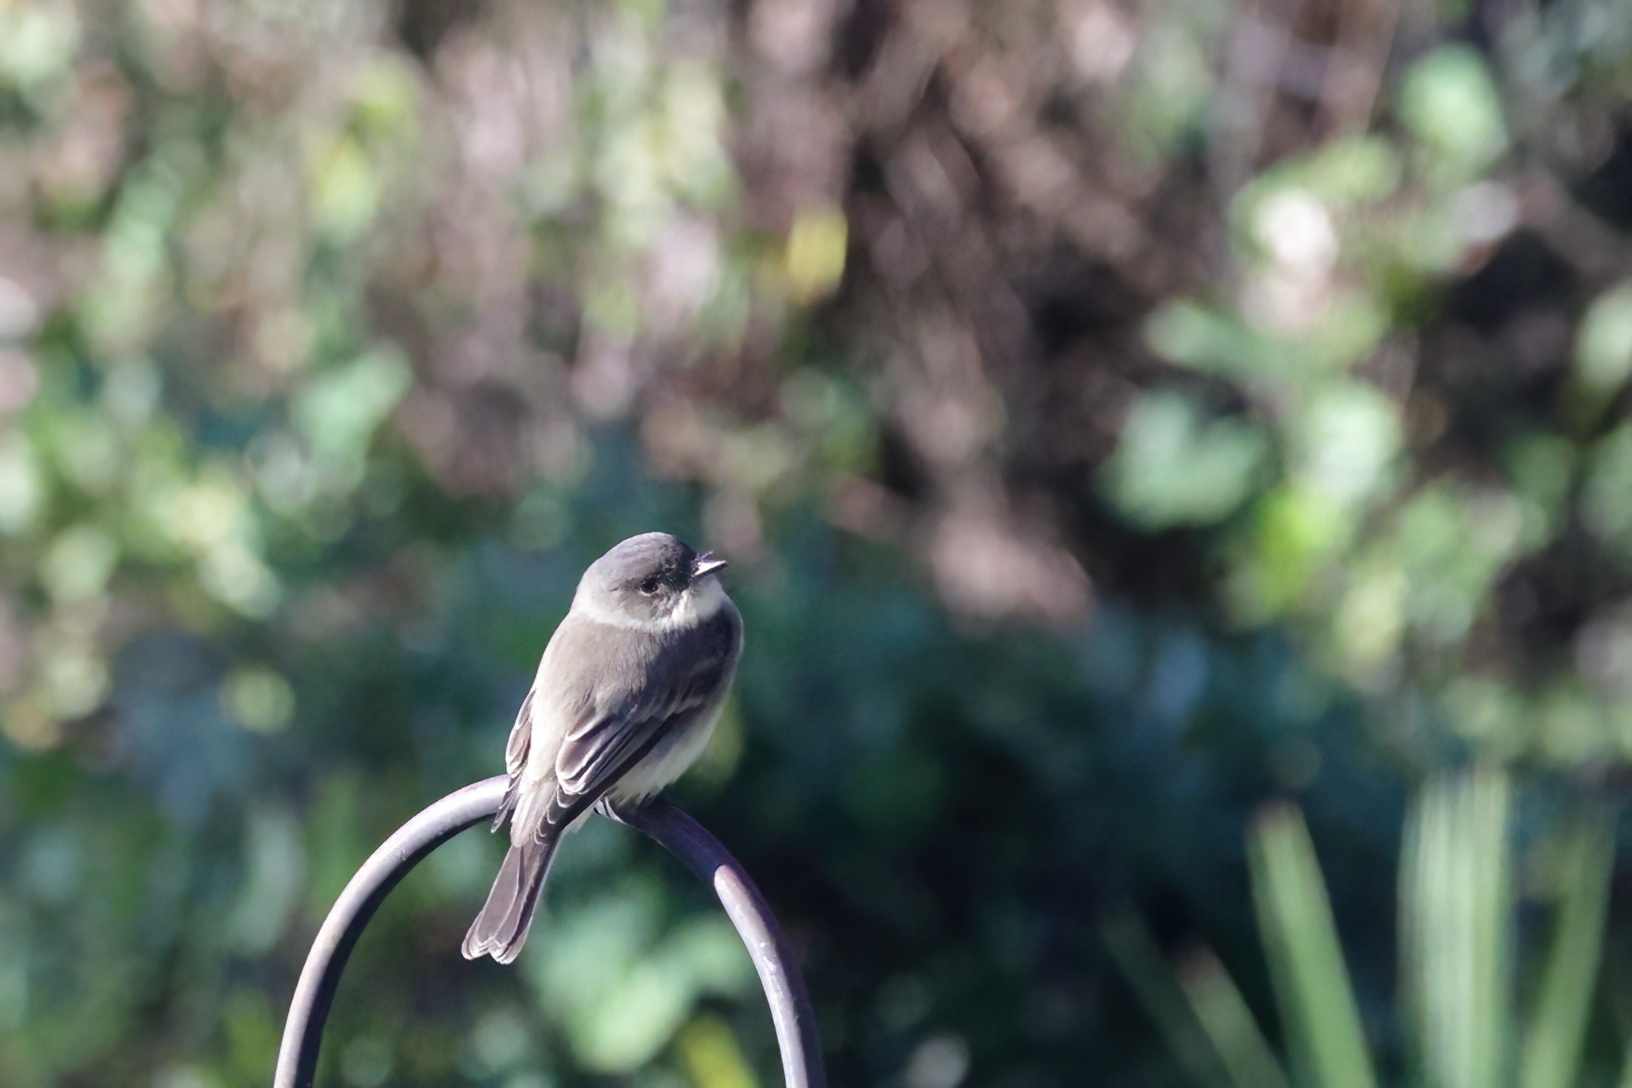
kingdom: Animalia
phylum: Chordata
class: Aves
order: Passeriformes
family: Tyrannidae
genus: Sayornis
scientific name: Sayornis phoebe
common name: Eastern phoebe
